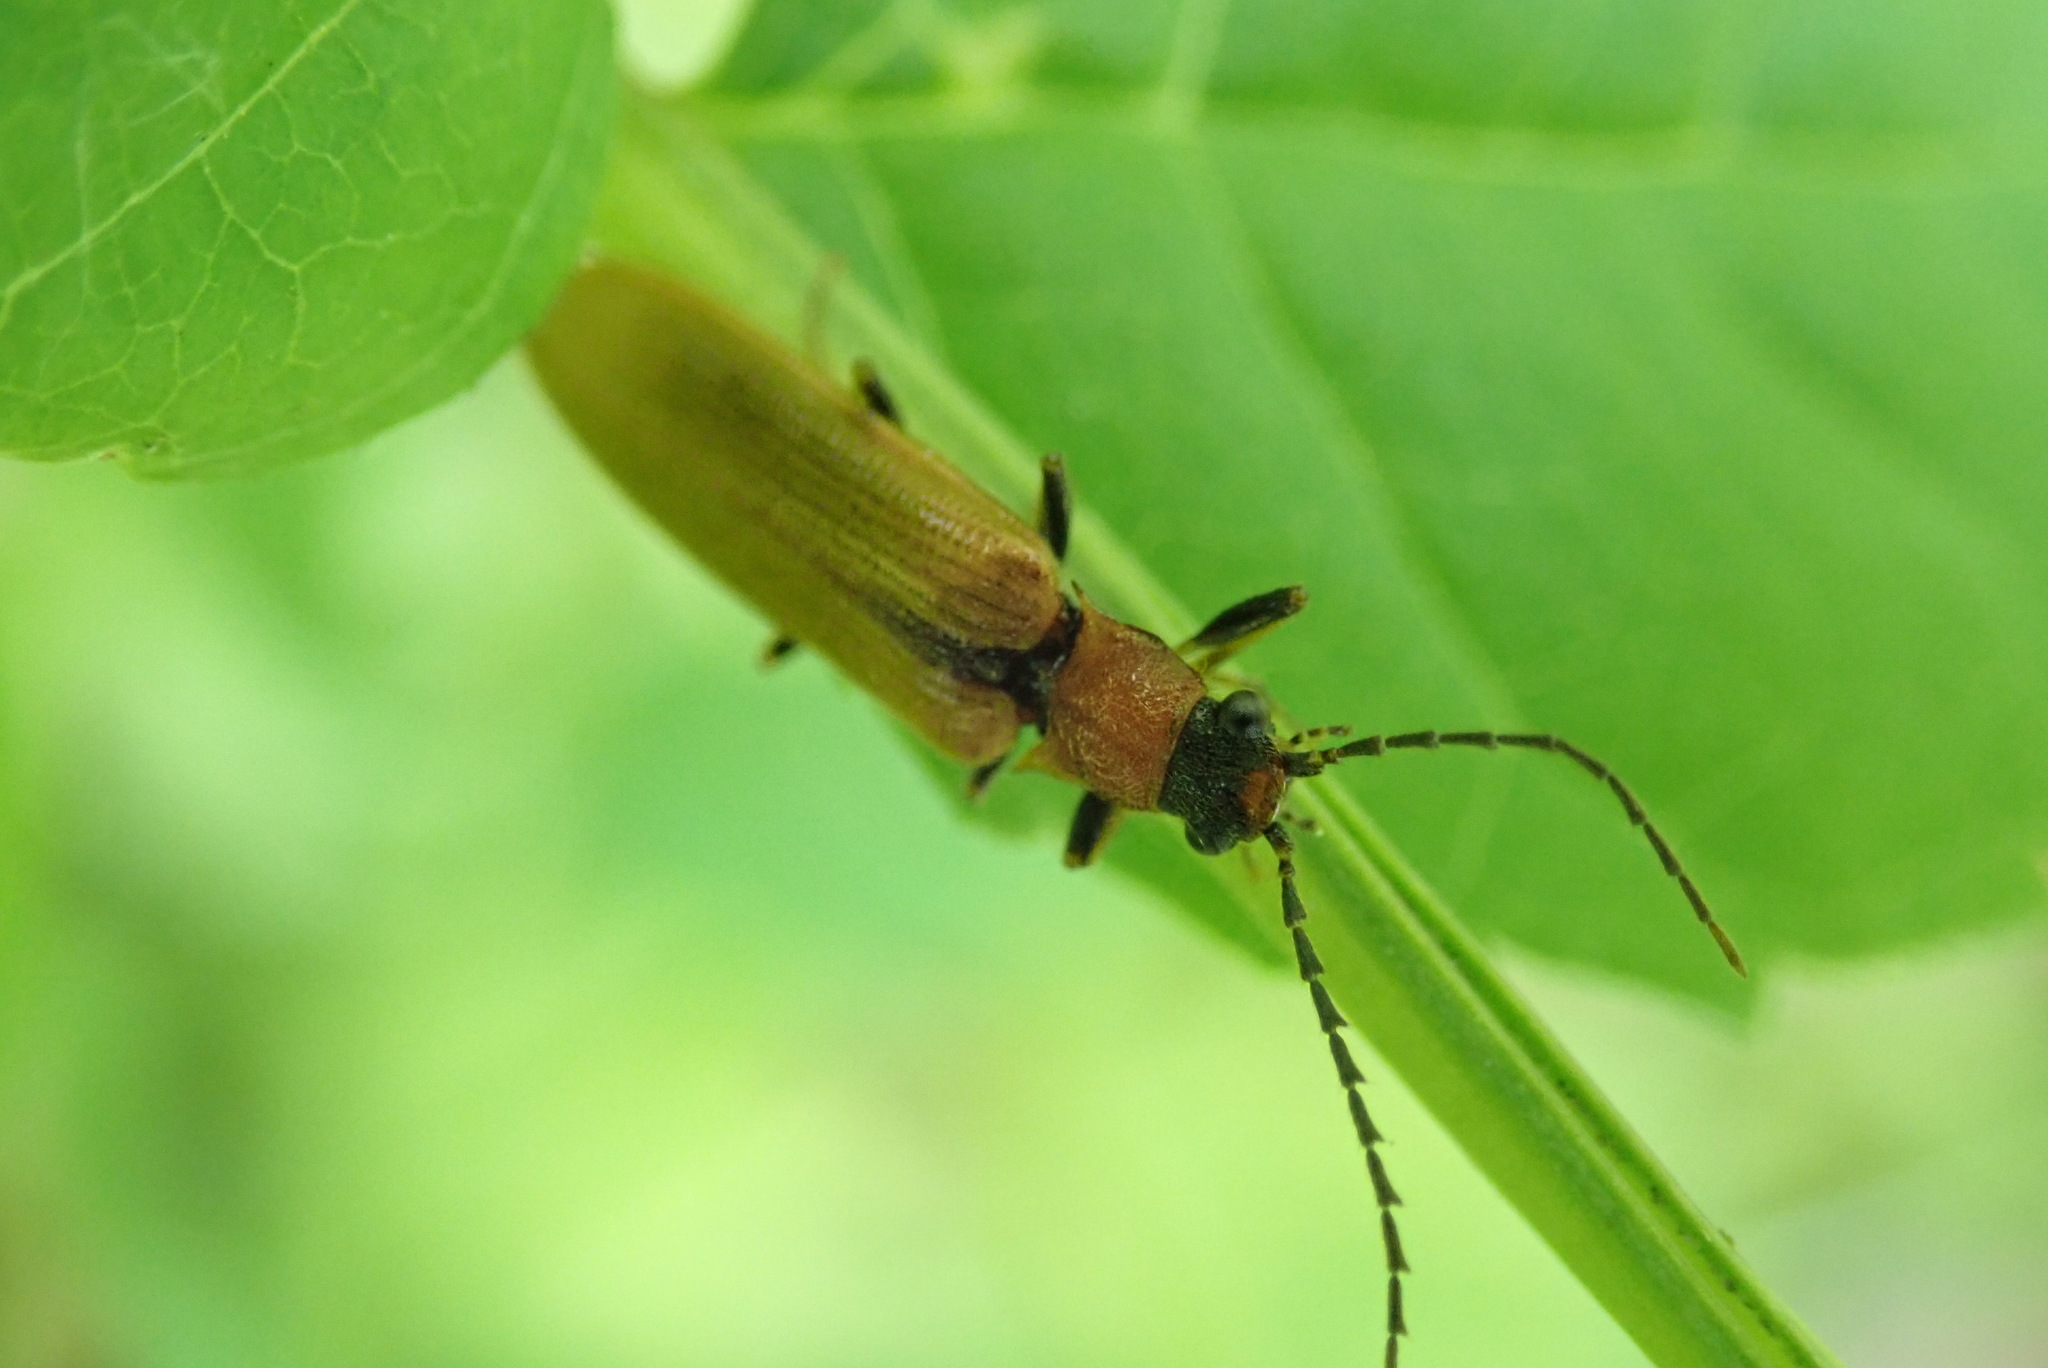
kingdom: Animalia
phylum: Arthropoda
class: Insecta
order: Coleoptera
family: Elateridae
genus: Denticollis
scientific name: Denticollis linearis
